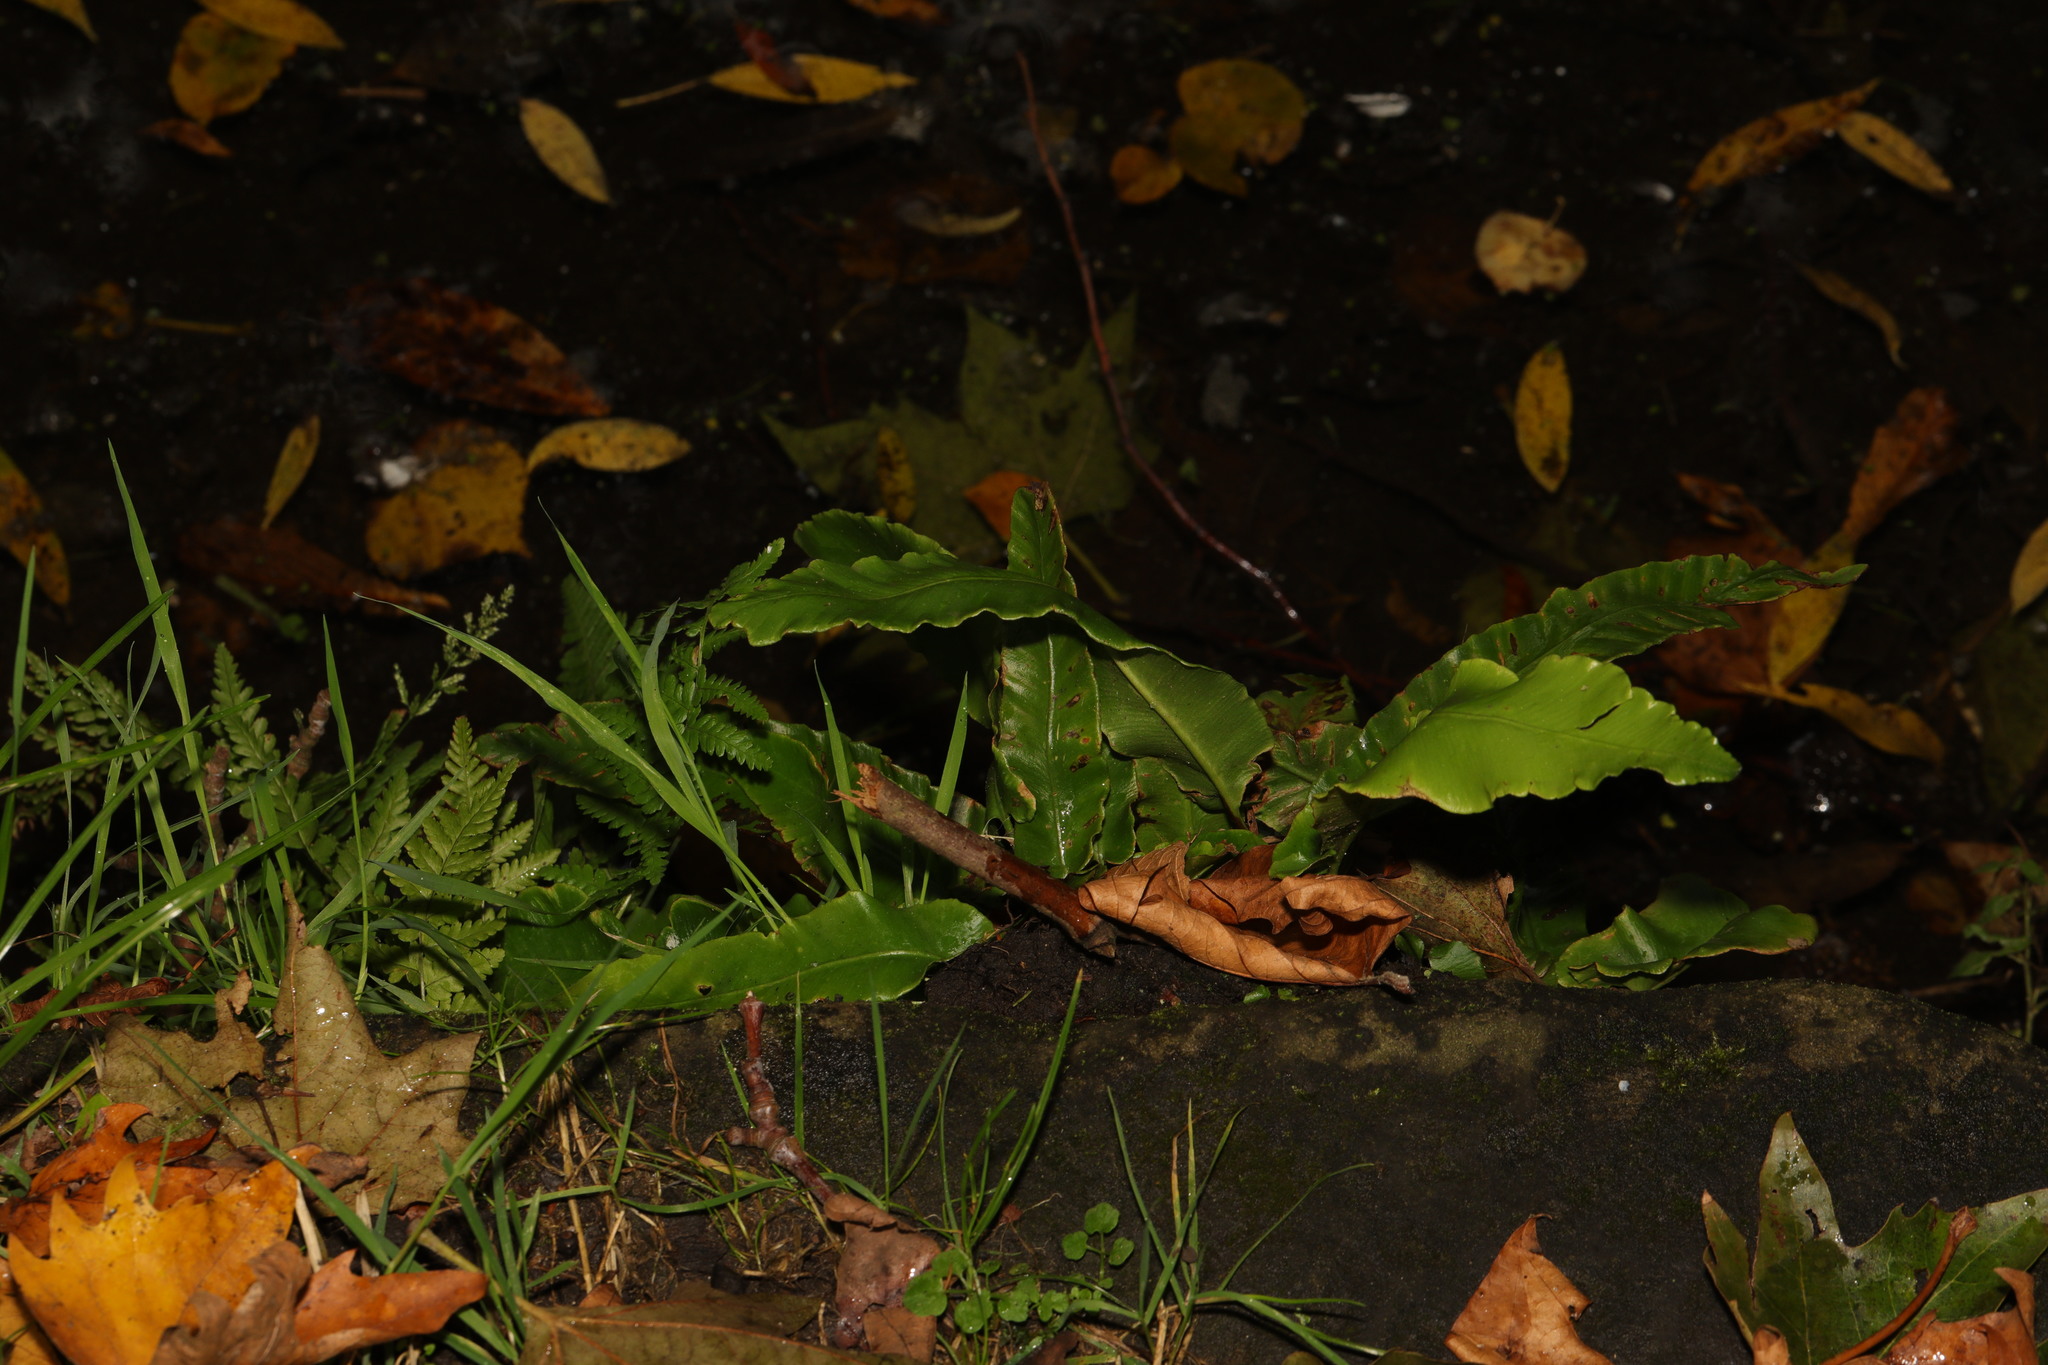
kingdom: Plantae
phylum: Tracheophyta
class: Polypodiopsida
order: Polypodiales
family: Aspleniaceae
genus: Asplenium
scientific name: Asplenium scolopendrium
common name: Hart's-tongue fern
